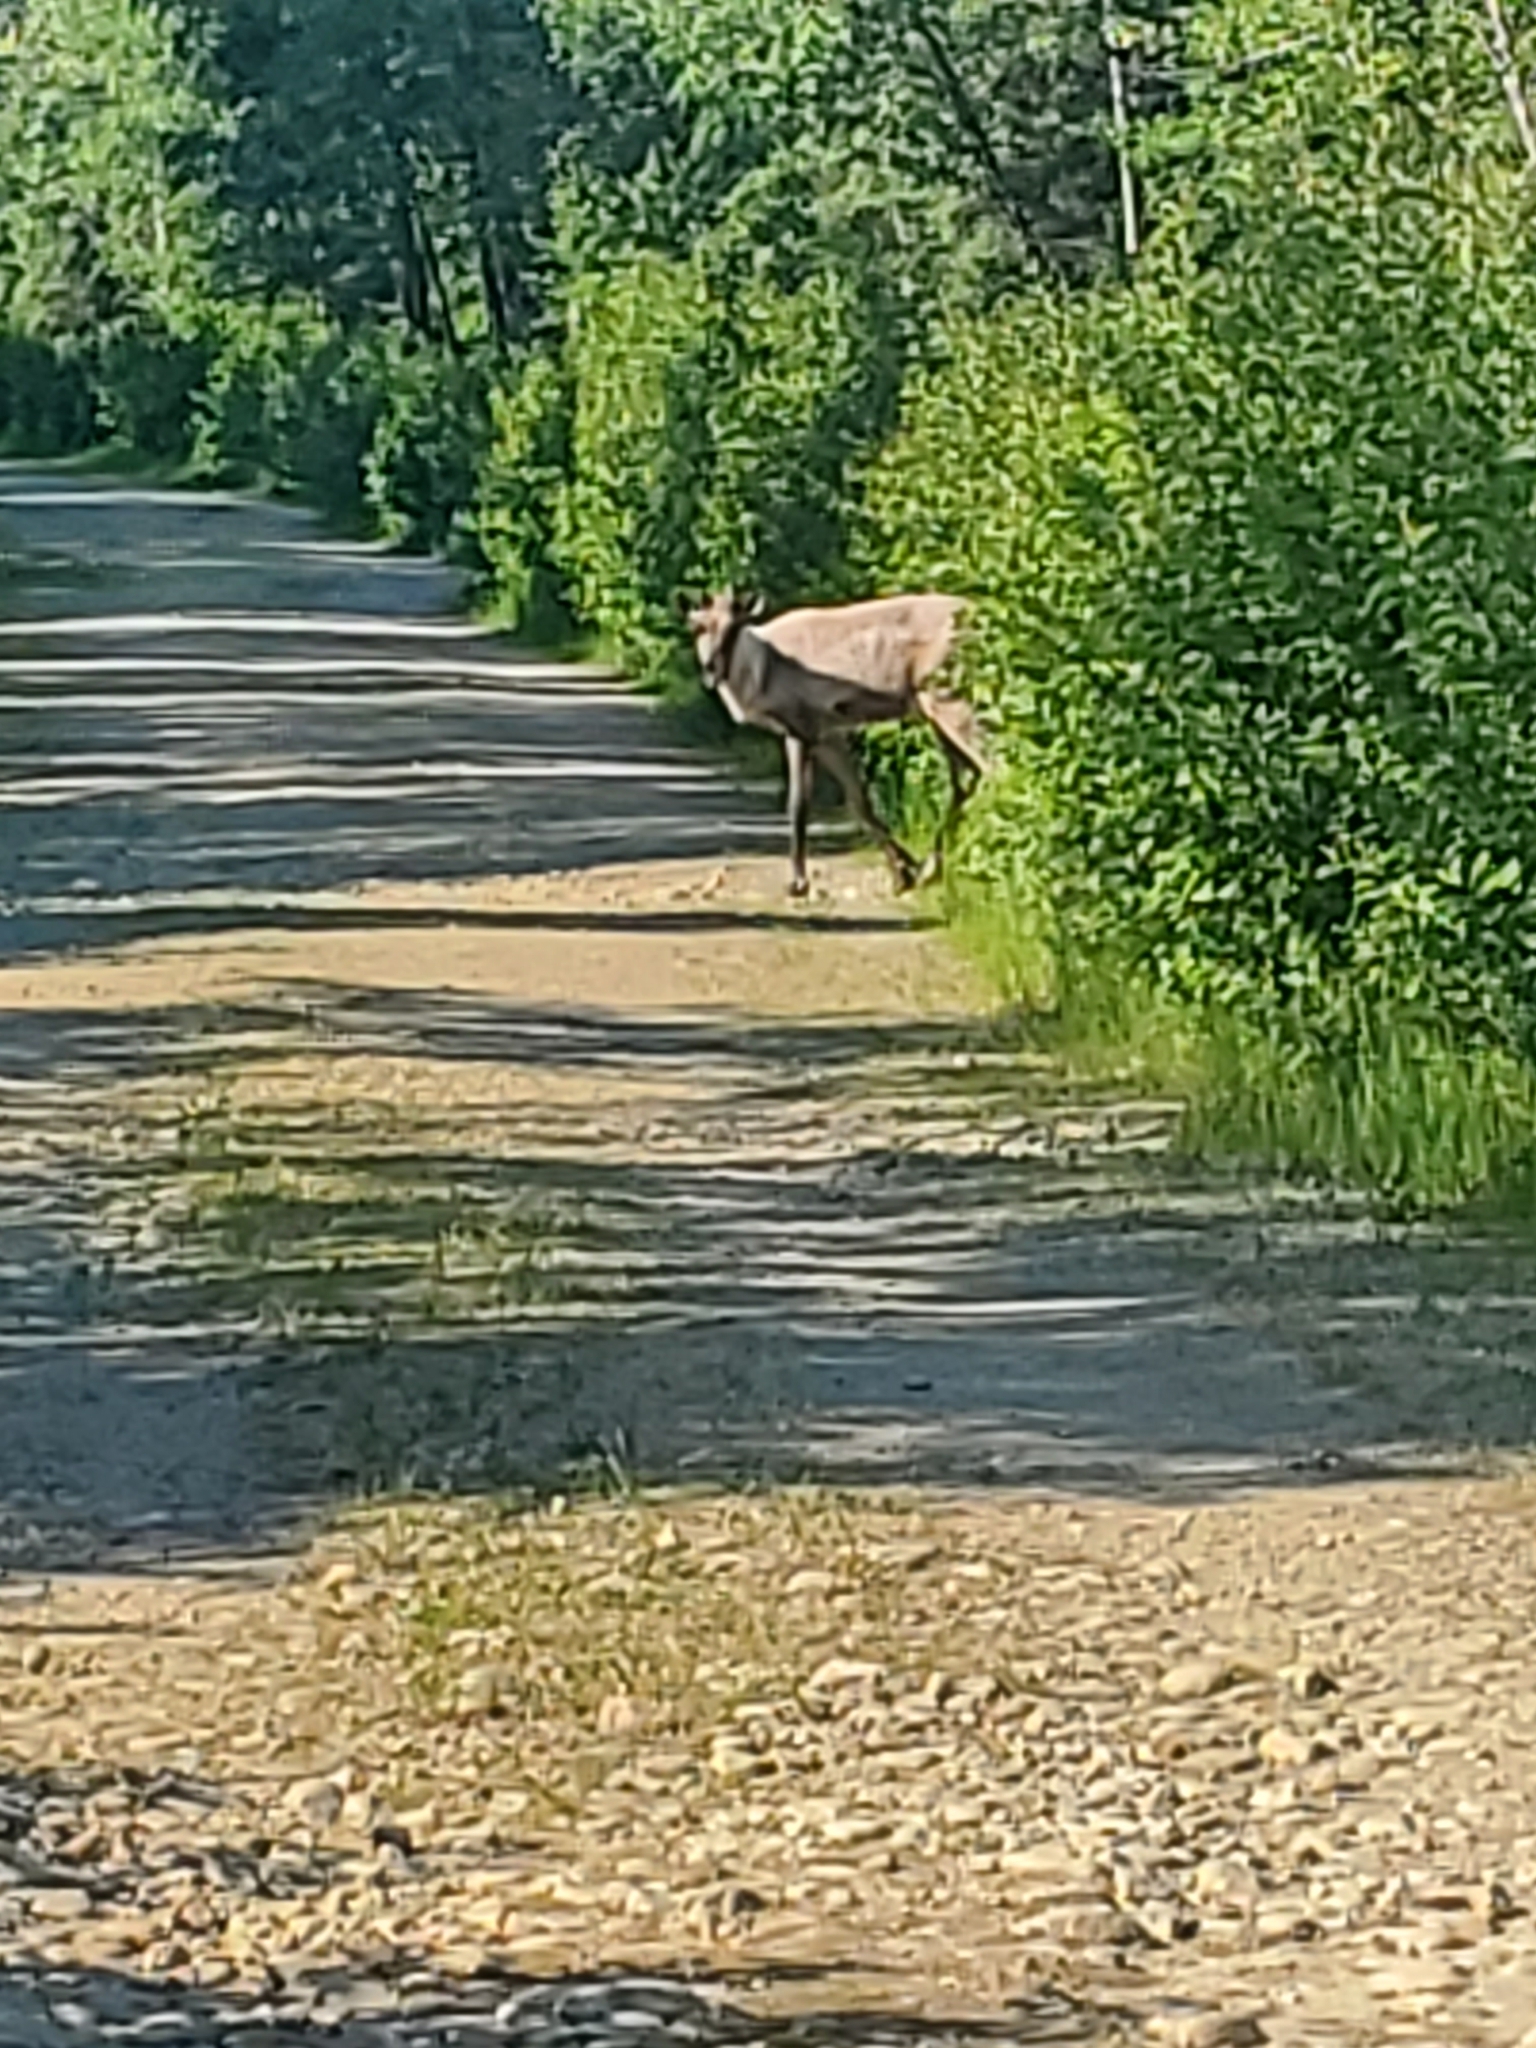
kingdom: Animalia
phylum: Chordata
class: Mammalia
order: Artiodactyla
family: Cervidae
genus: Rangifer
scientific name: Rangifer tarandus
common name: Reindeer
